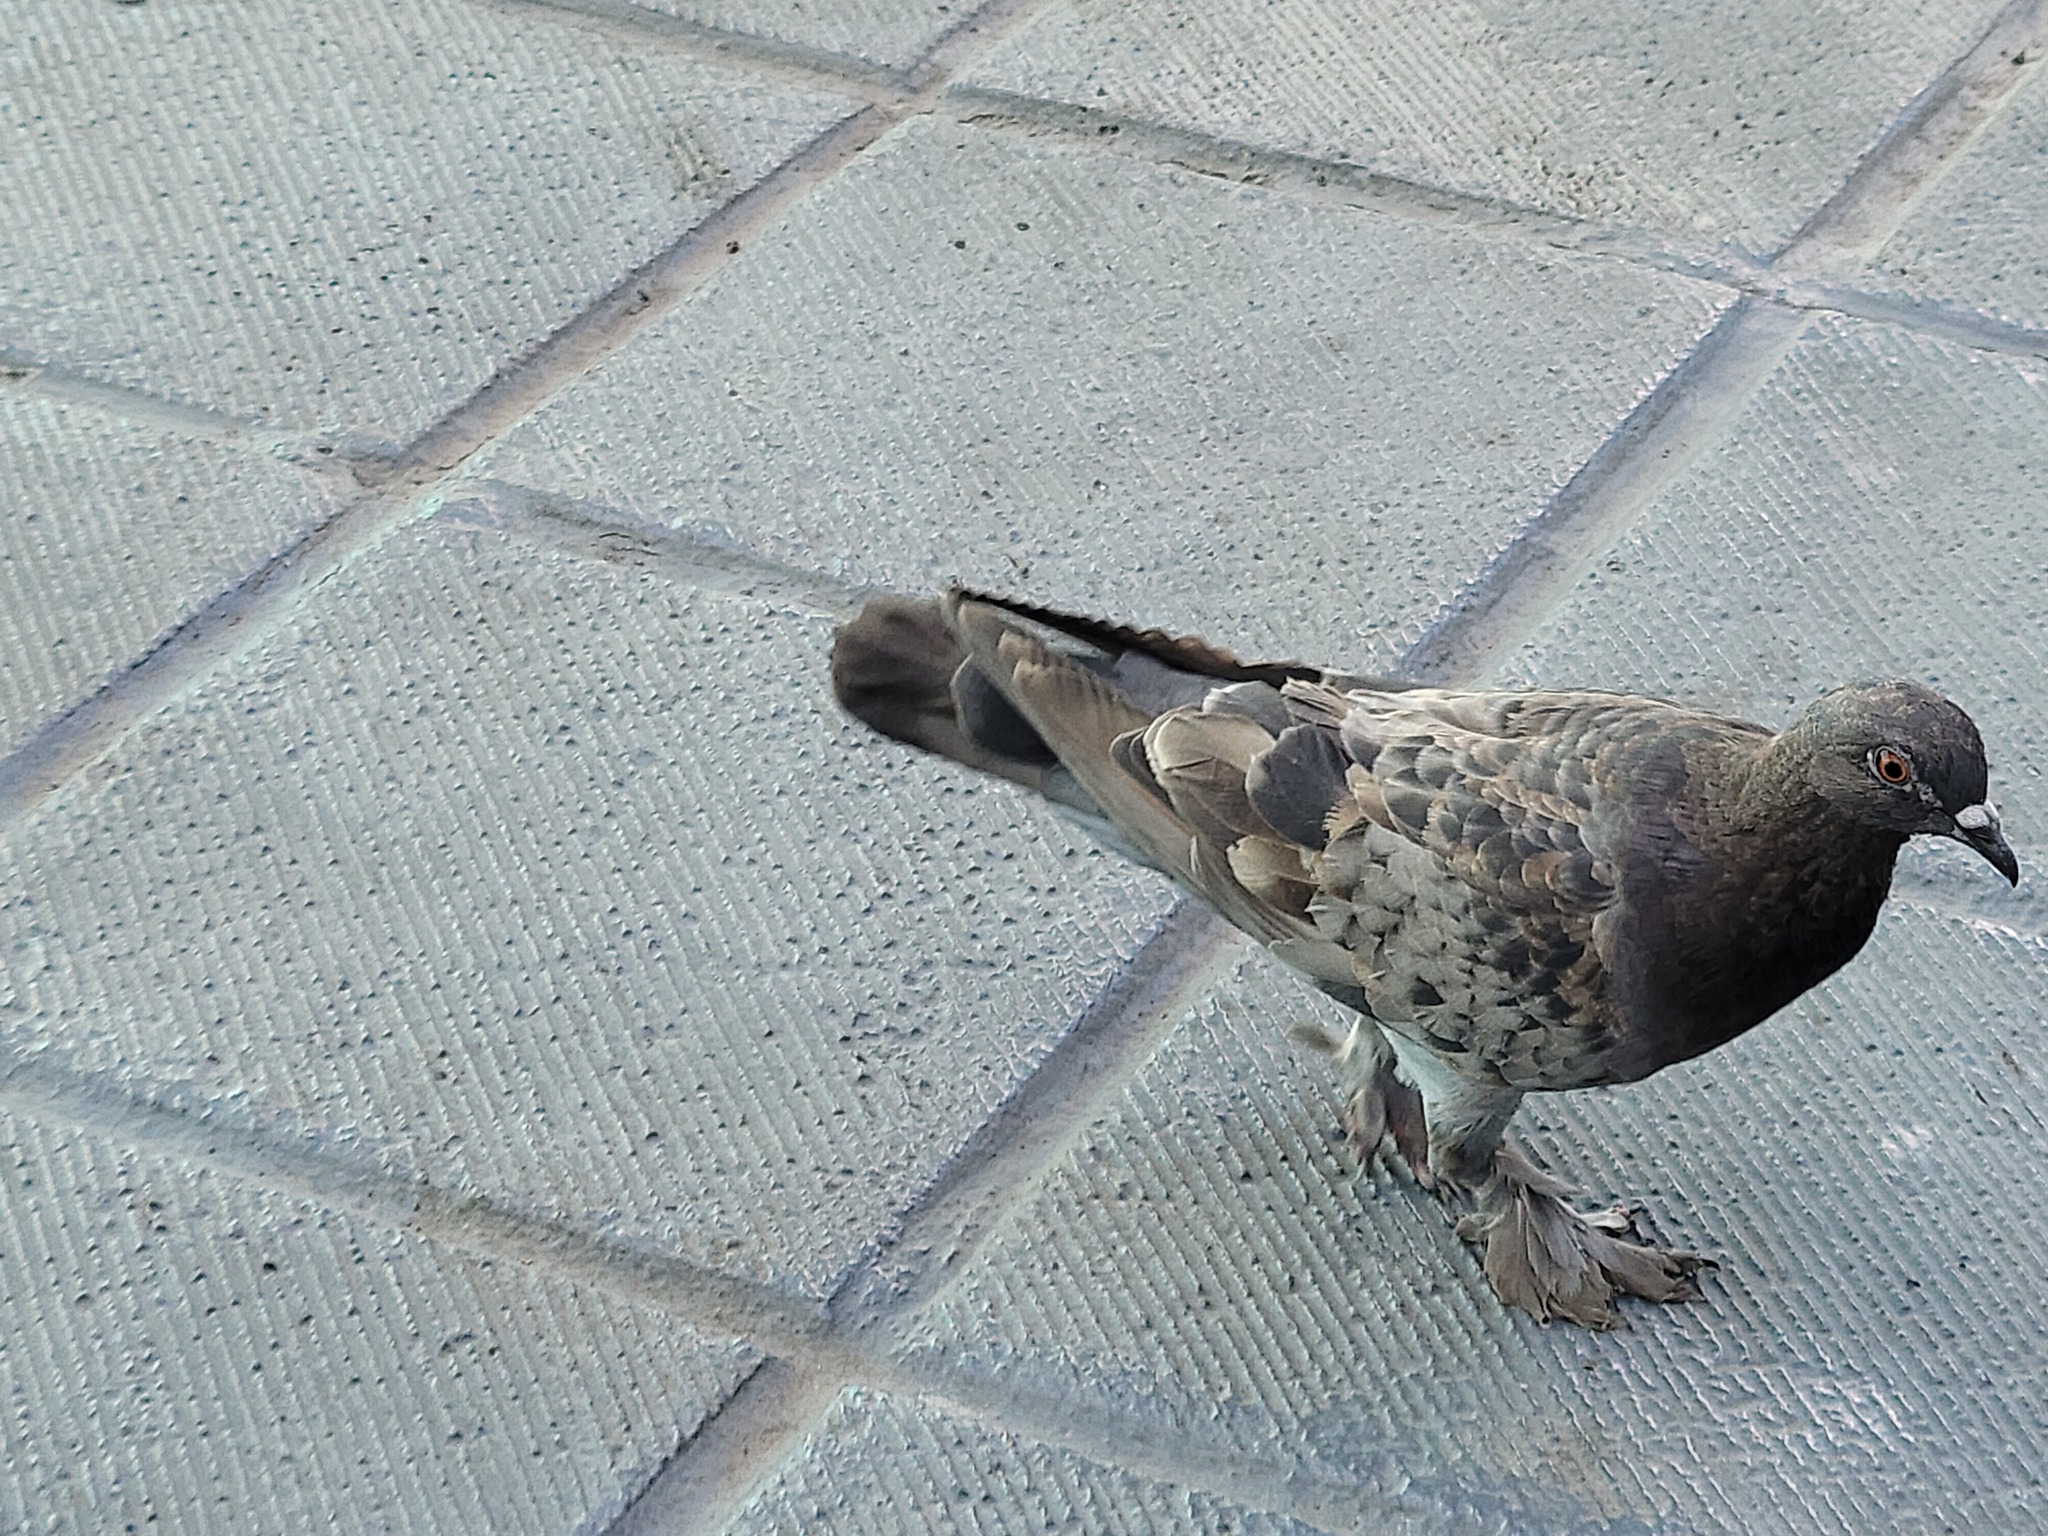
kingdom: Animalia
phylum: Chordata
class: Aves
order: Columbiformes
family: Columbidae
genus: Columba
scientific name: Columba livia
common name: Rock pigeon
